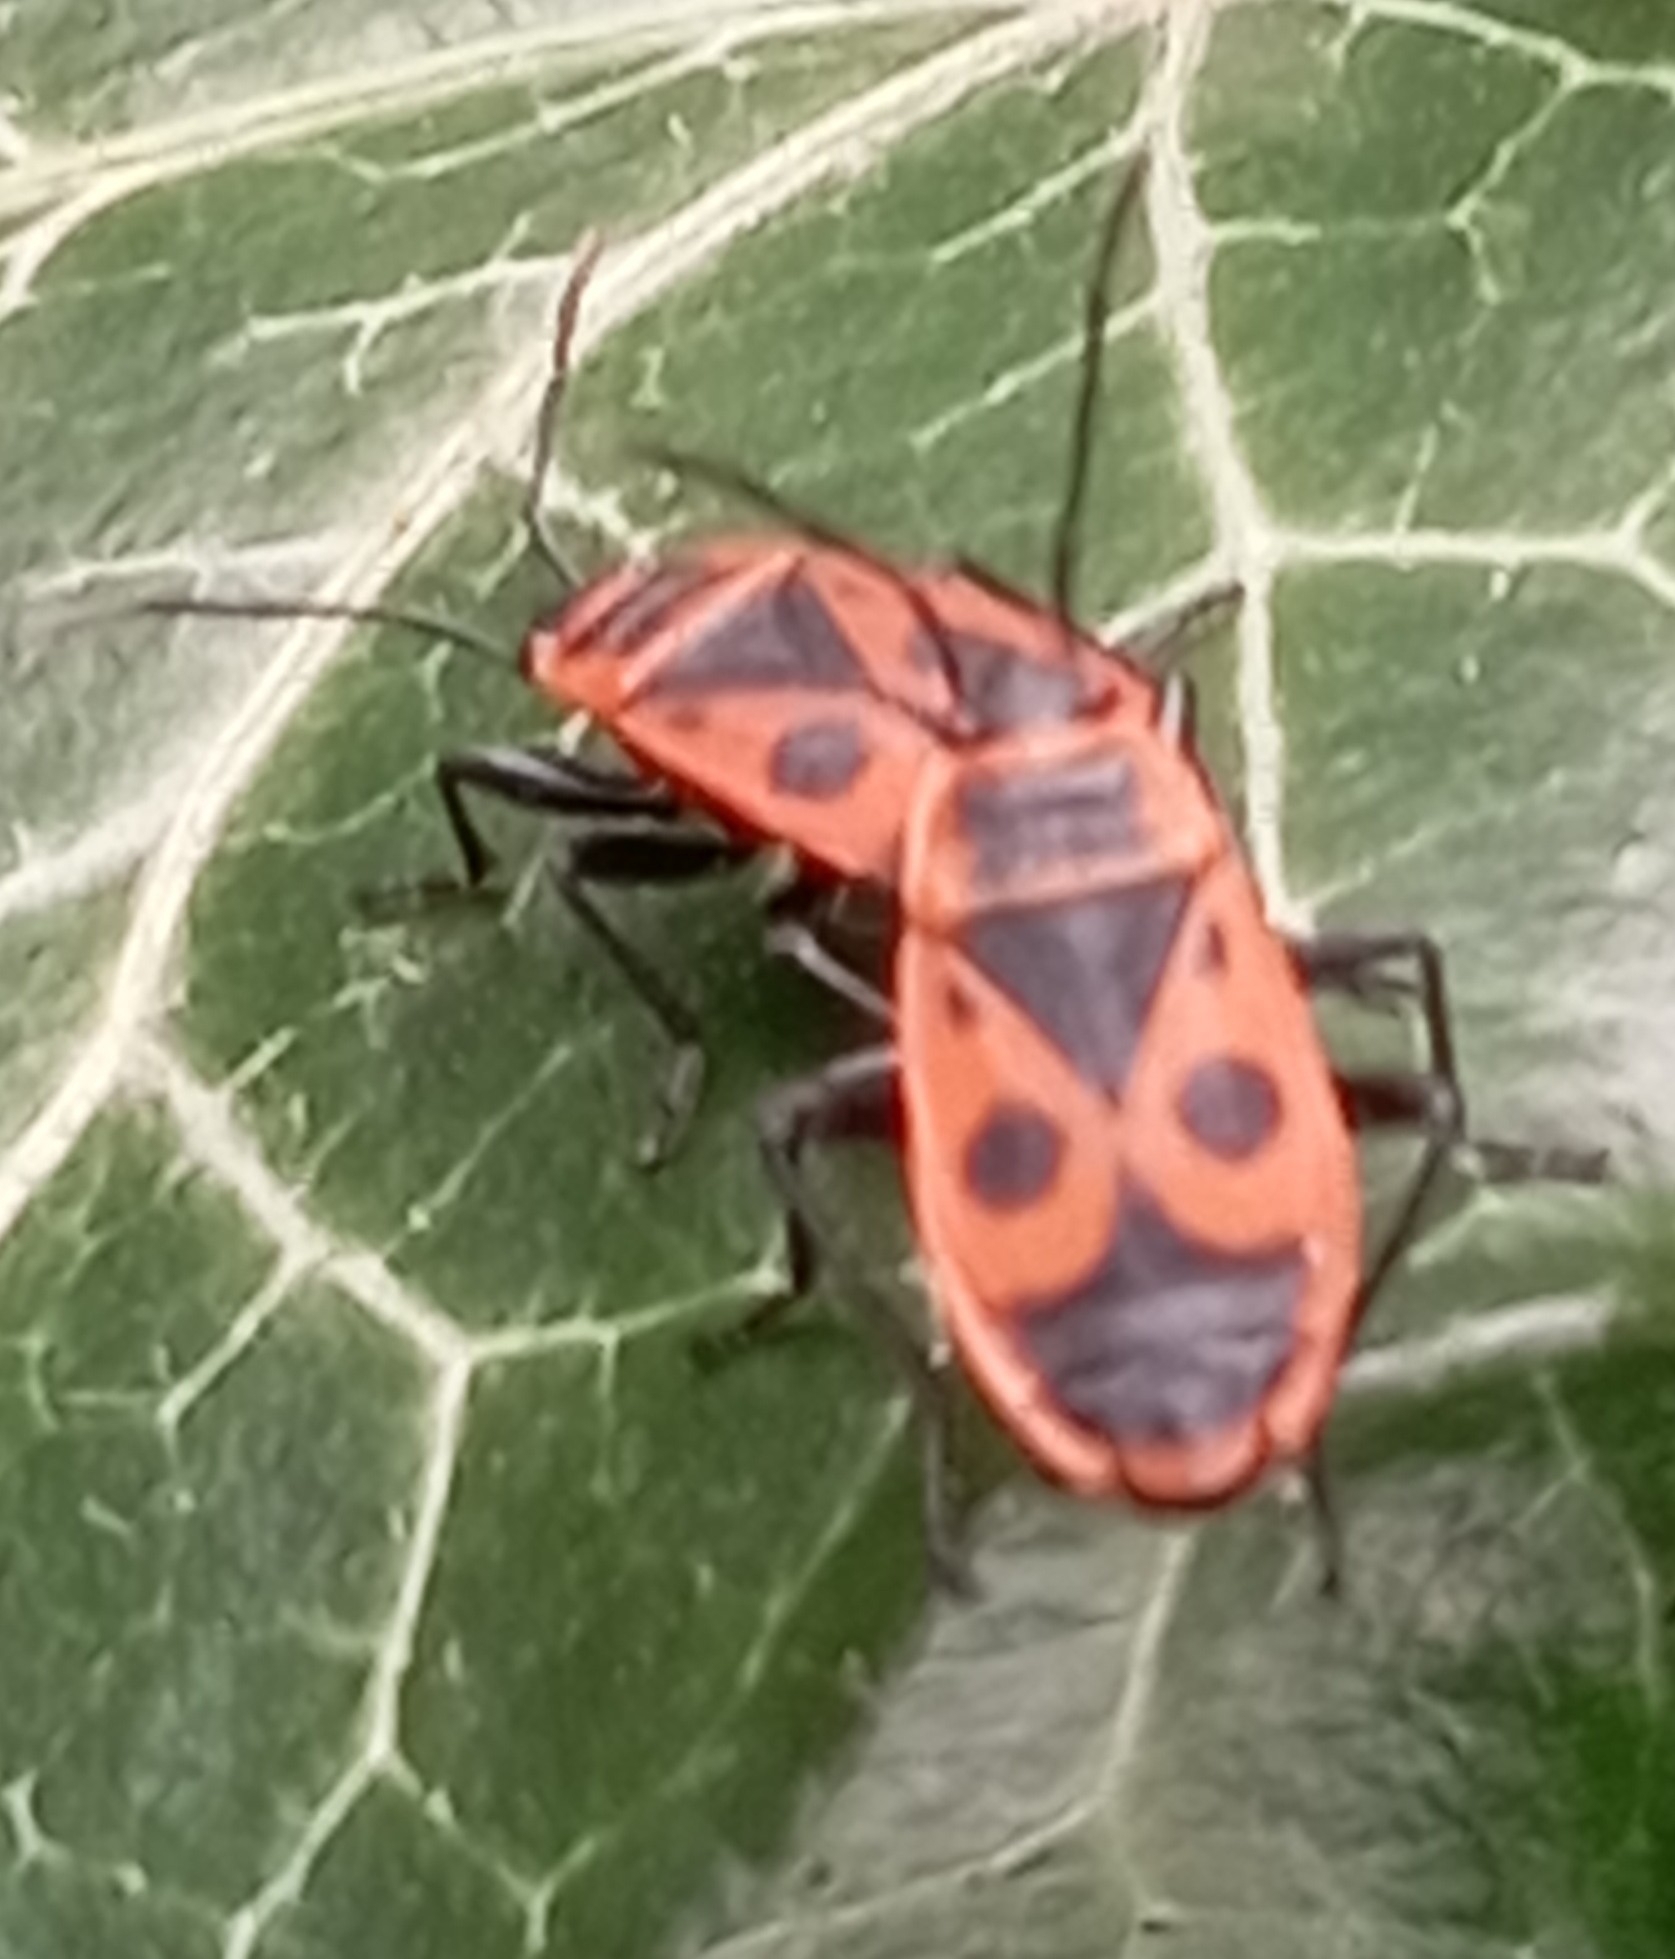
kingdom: Animalia
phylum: Arthropoda
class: Insecta
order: Hemiptera
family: Pyrrhocoridae
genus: Pyrrhocoris
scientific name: Pyrrhocoris apterus
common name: Firebug
